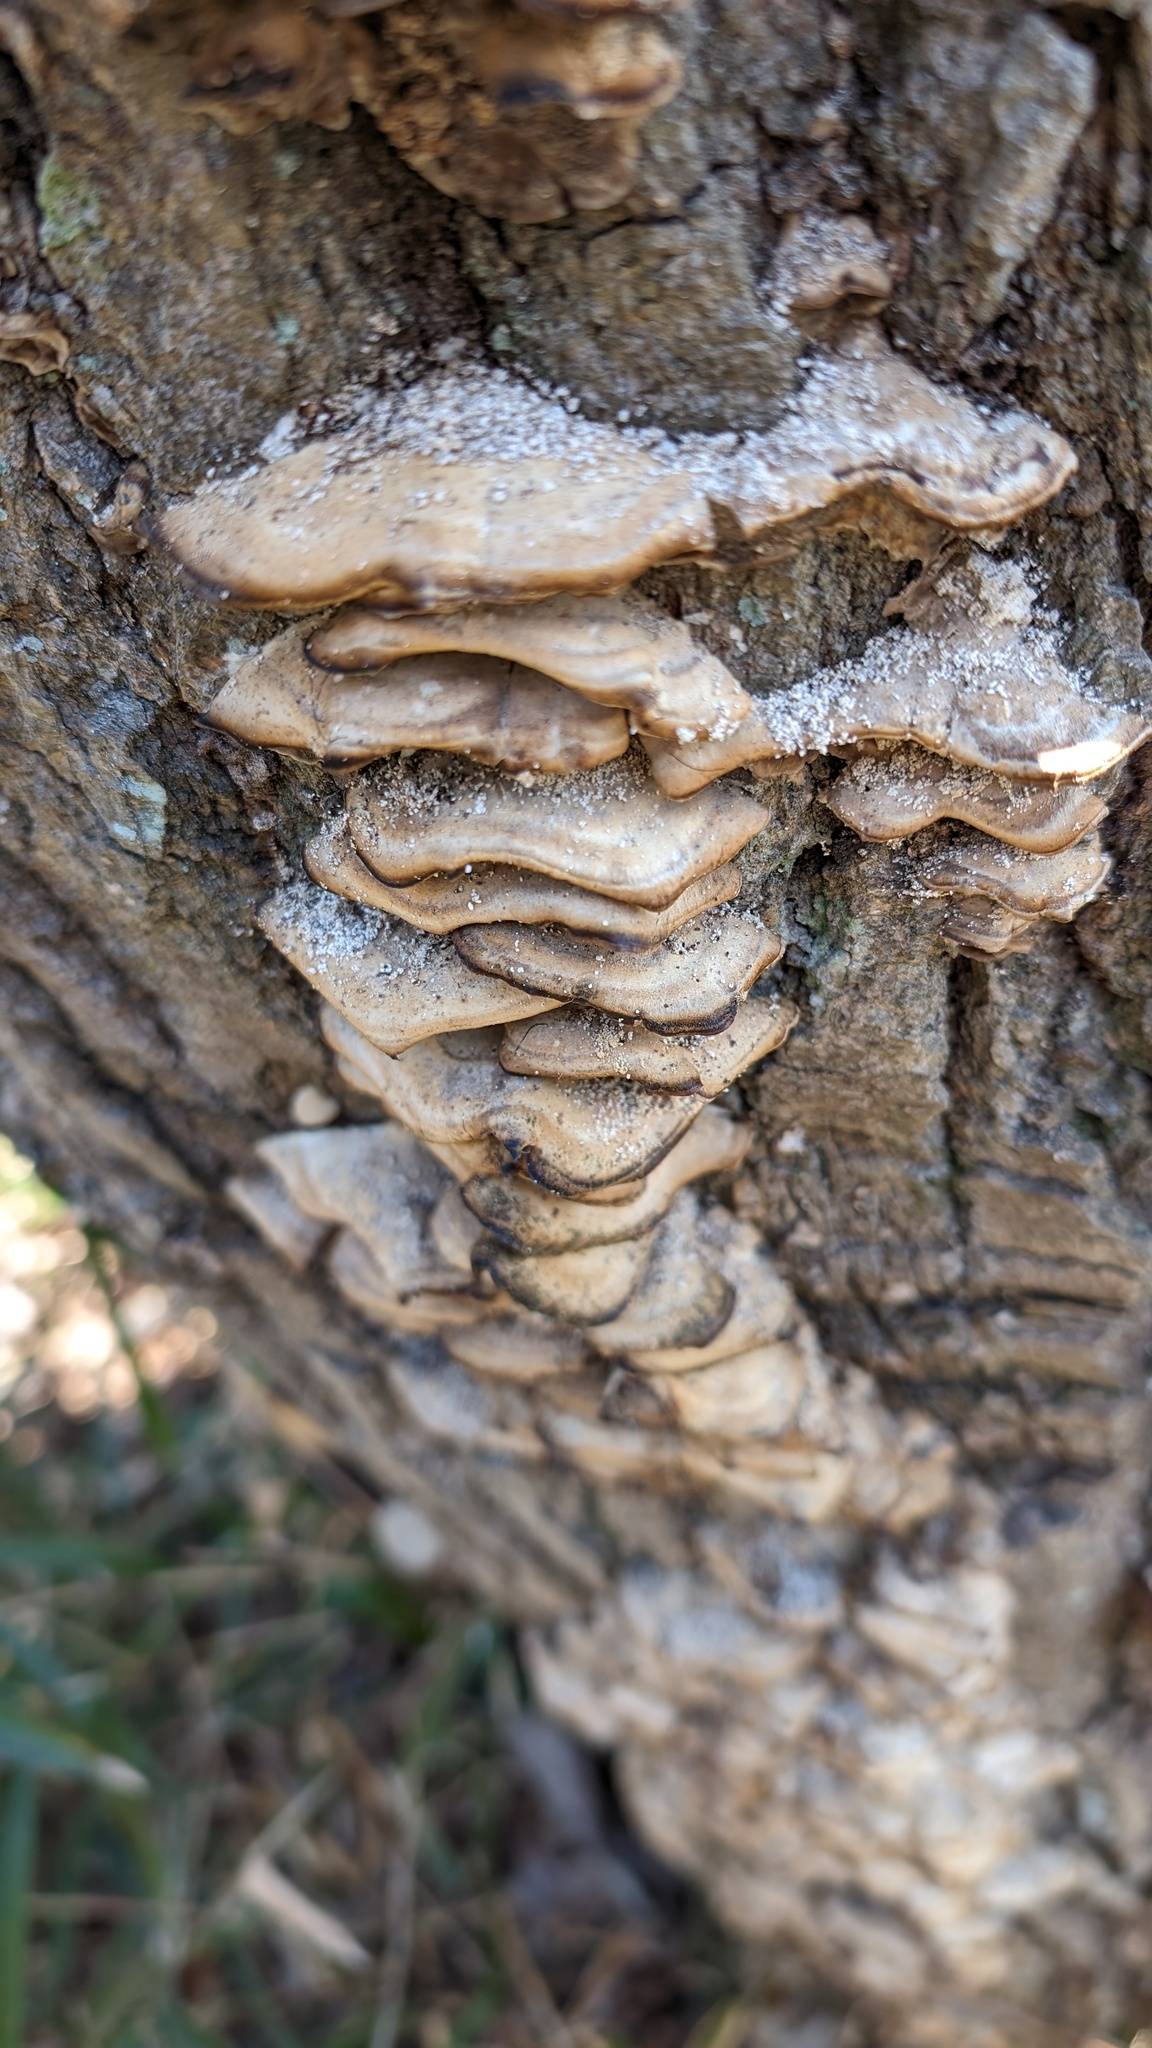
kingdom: Fungi
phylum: Basidiomycota
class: Agaricomycetes
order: Polyporales
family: Phanerochaetaceae
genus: Bjerkandera
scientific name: Bjerkandera adusta
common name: Smoky bracket
